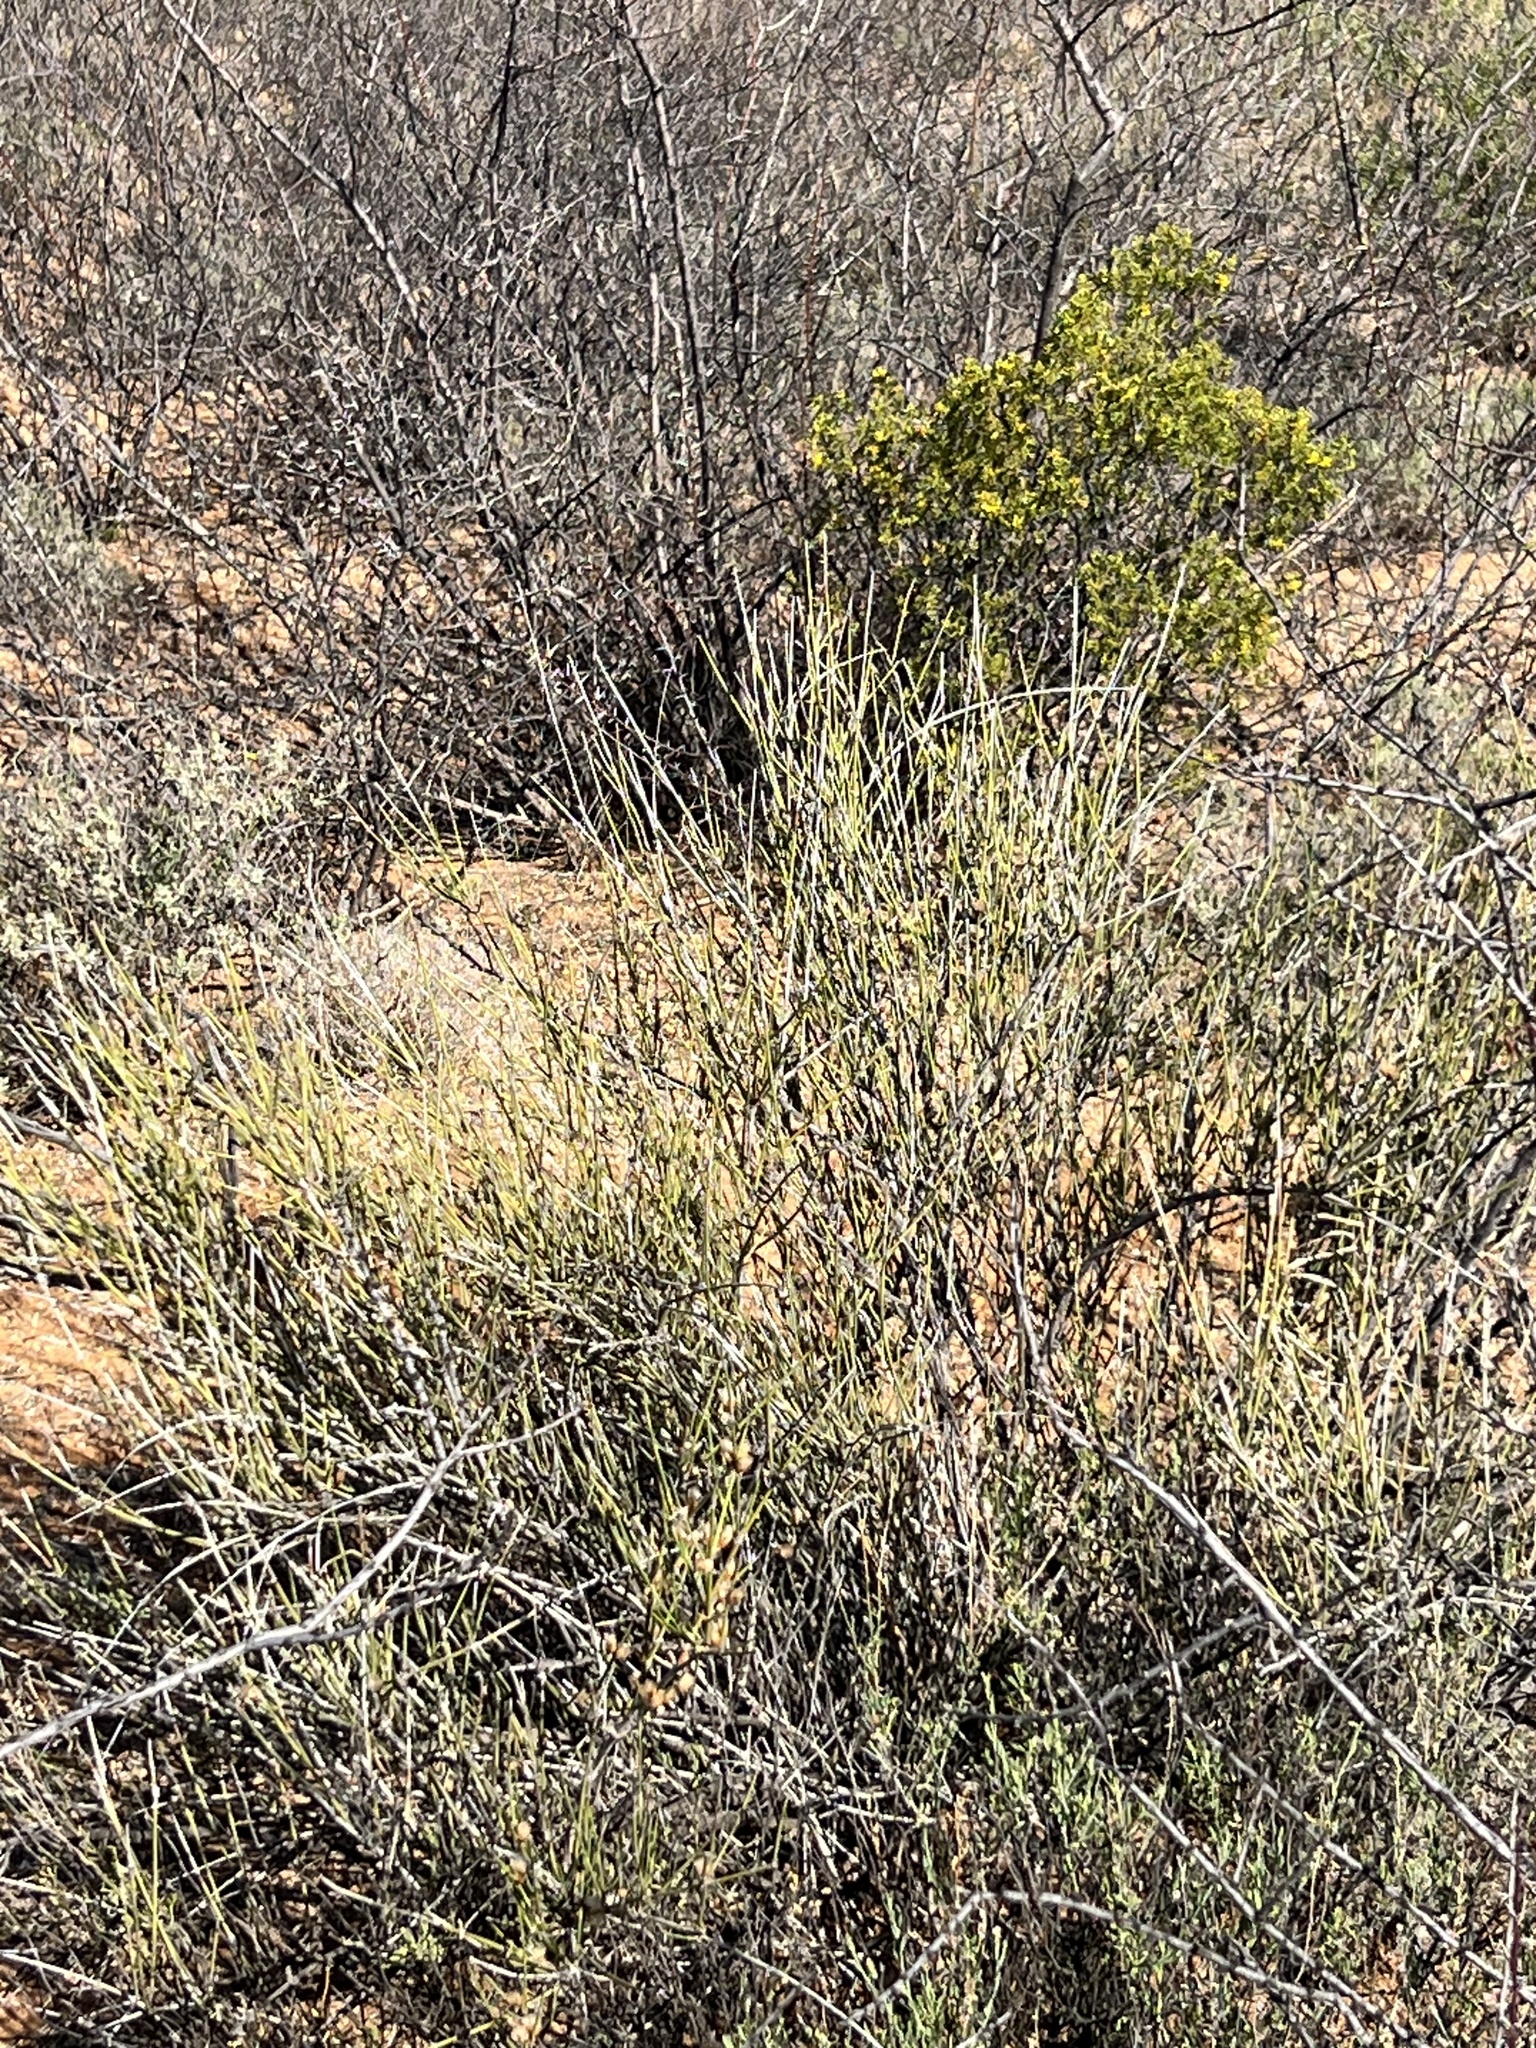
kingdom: Plantae
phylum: Tracheophyta
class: Gnetopsida
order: Ephedrales
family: Ephedraceae
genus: Ephedra
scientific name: Ephedra trifurca
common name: Mexican-tea
